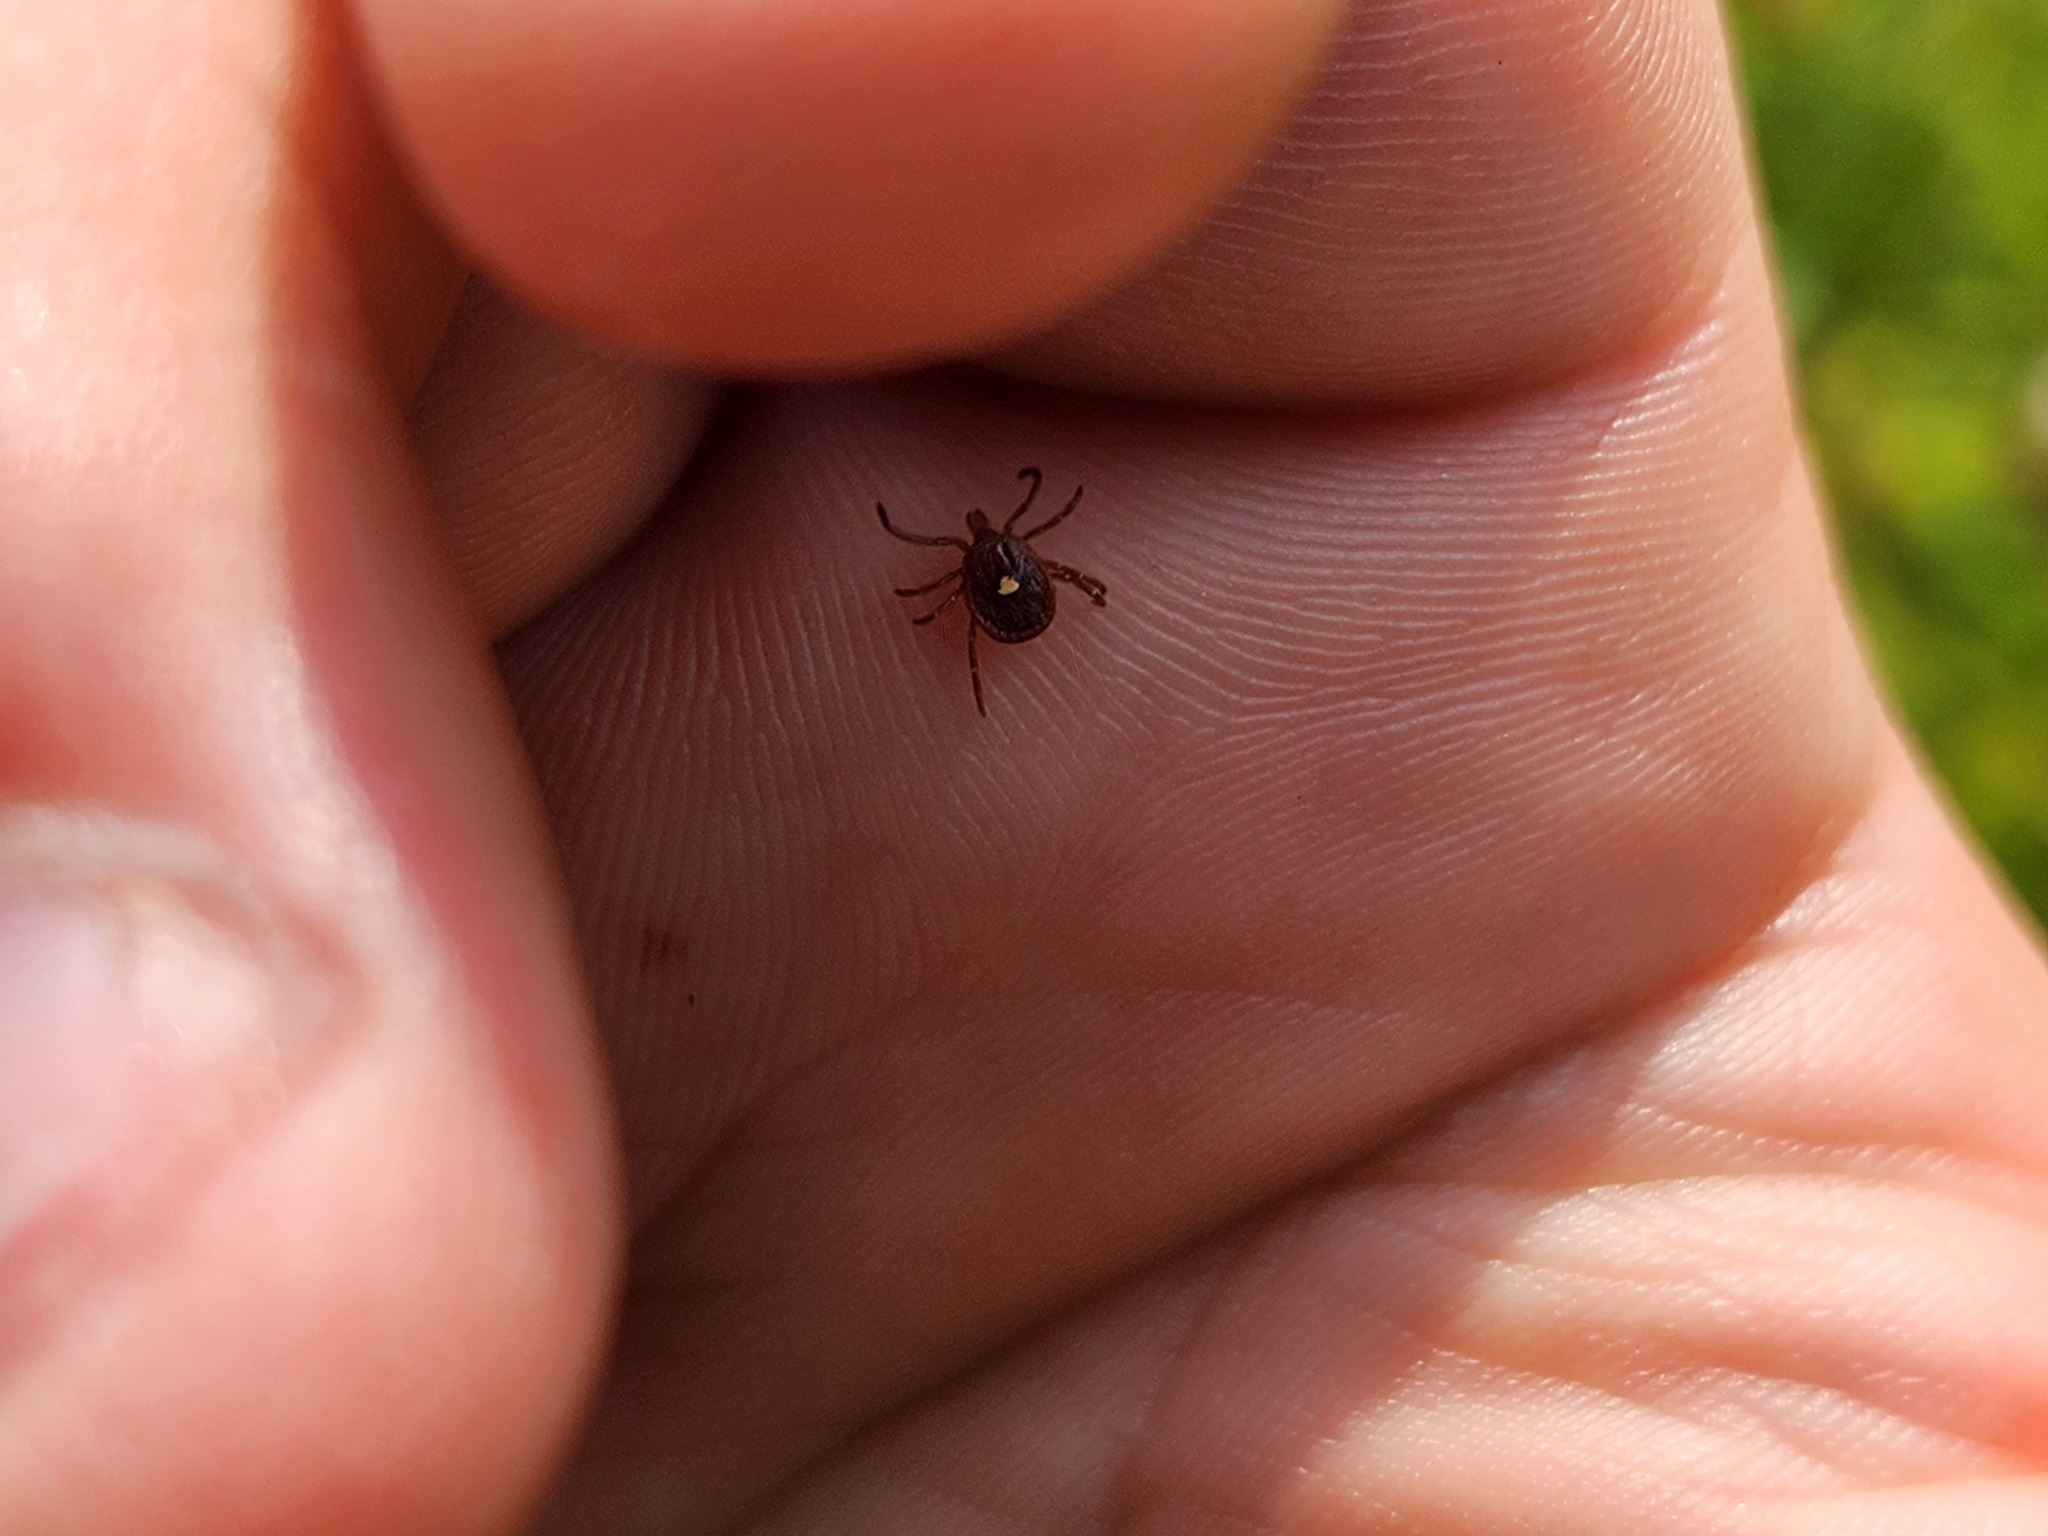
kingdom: Animalia
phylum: Arthropoda
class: Arachnida
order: Ixodida
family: Ixodidae
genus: Amblyomma
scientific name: Amblyomma americanum
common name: Lone star tick
